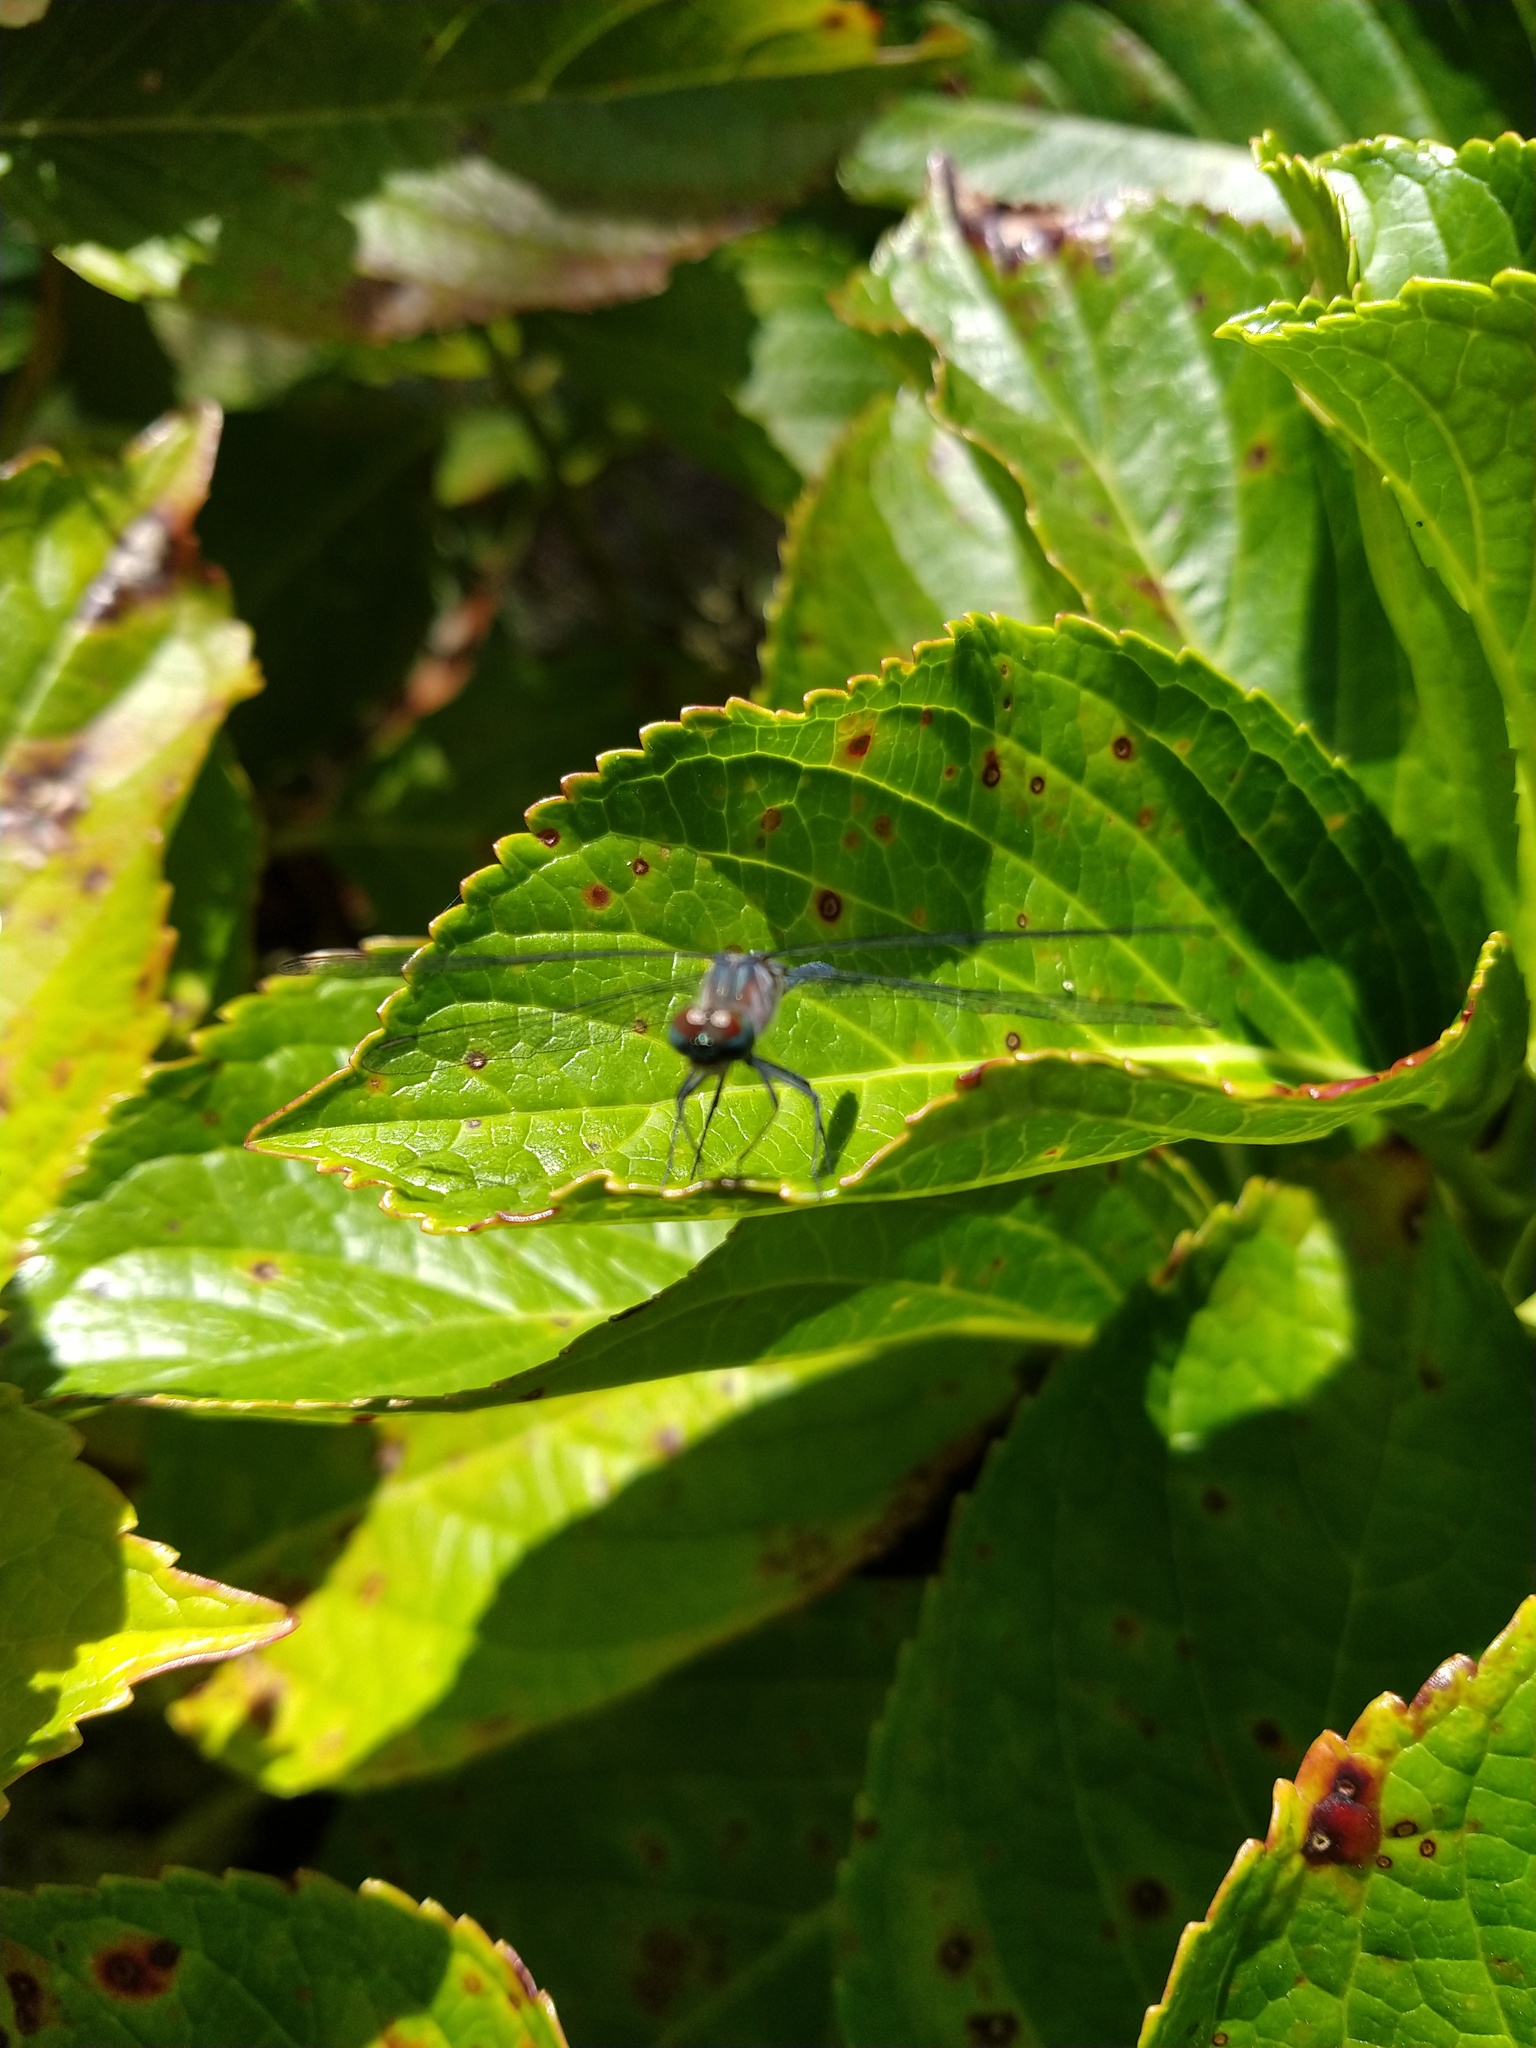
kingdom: Animalia
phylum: Arthropoda
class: Insecta
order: Odonata
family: Libellulidae
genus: Oligoclada
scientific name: Oligoclada rubribasalis
